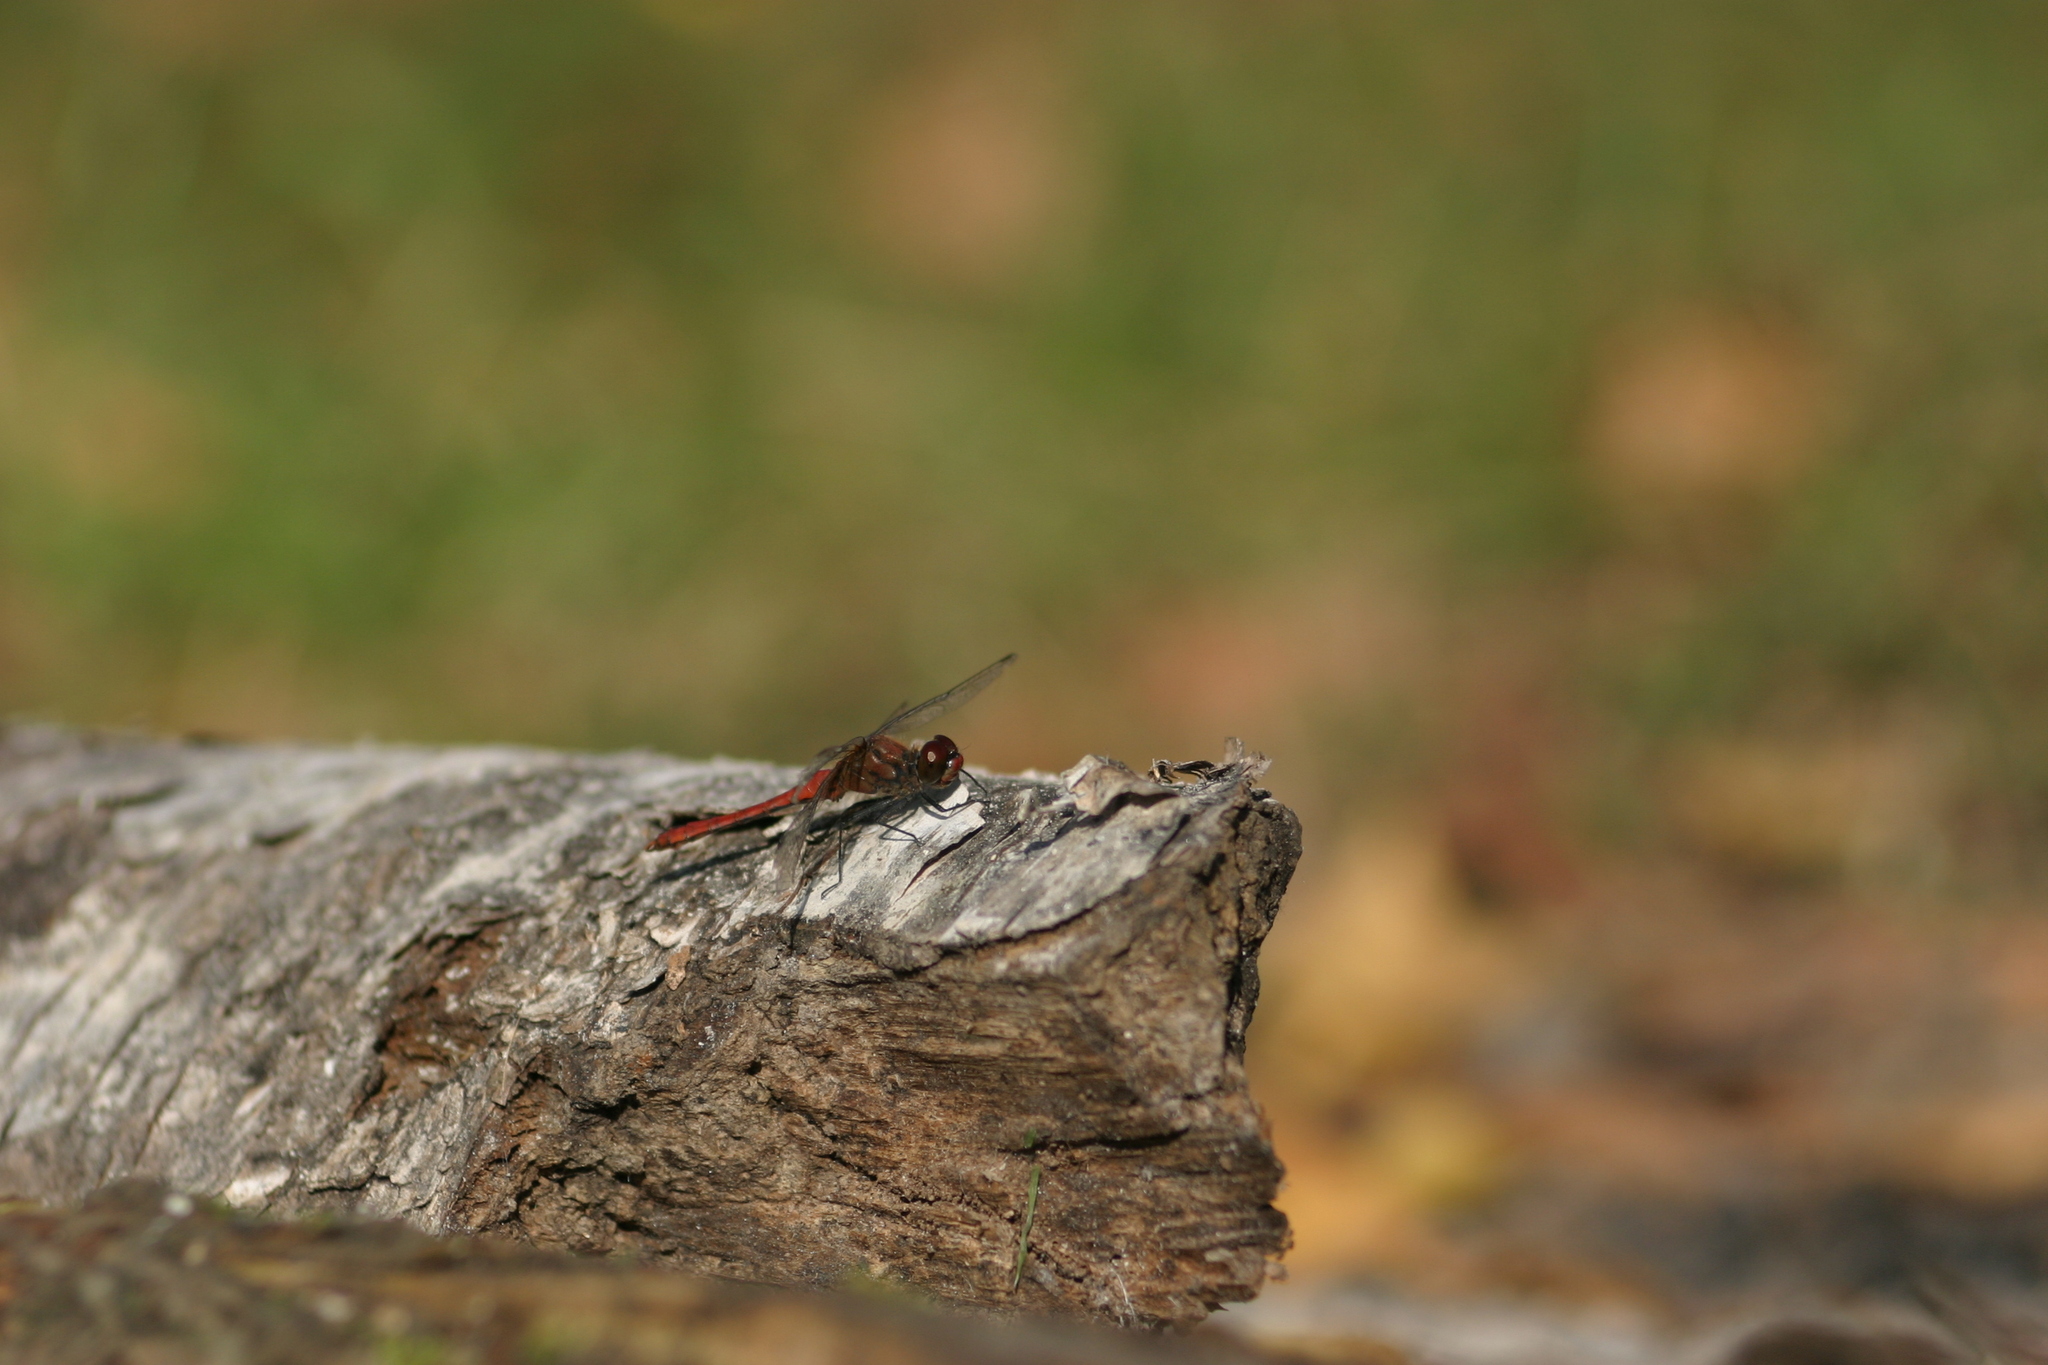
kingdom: Animalia
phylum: Arthropoda
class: Insecta
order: Odonata
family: Libellulidae
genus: Sympetrum
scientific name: Sympetrum sanguineum
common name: Ruddy darter
